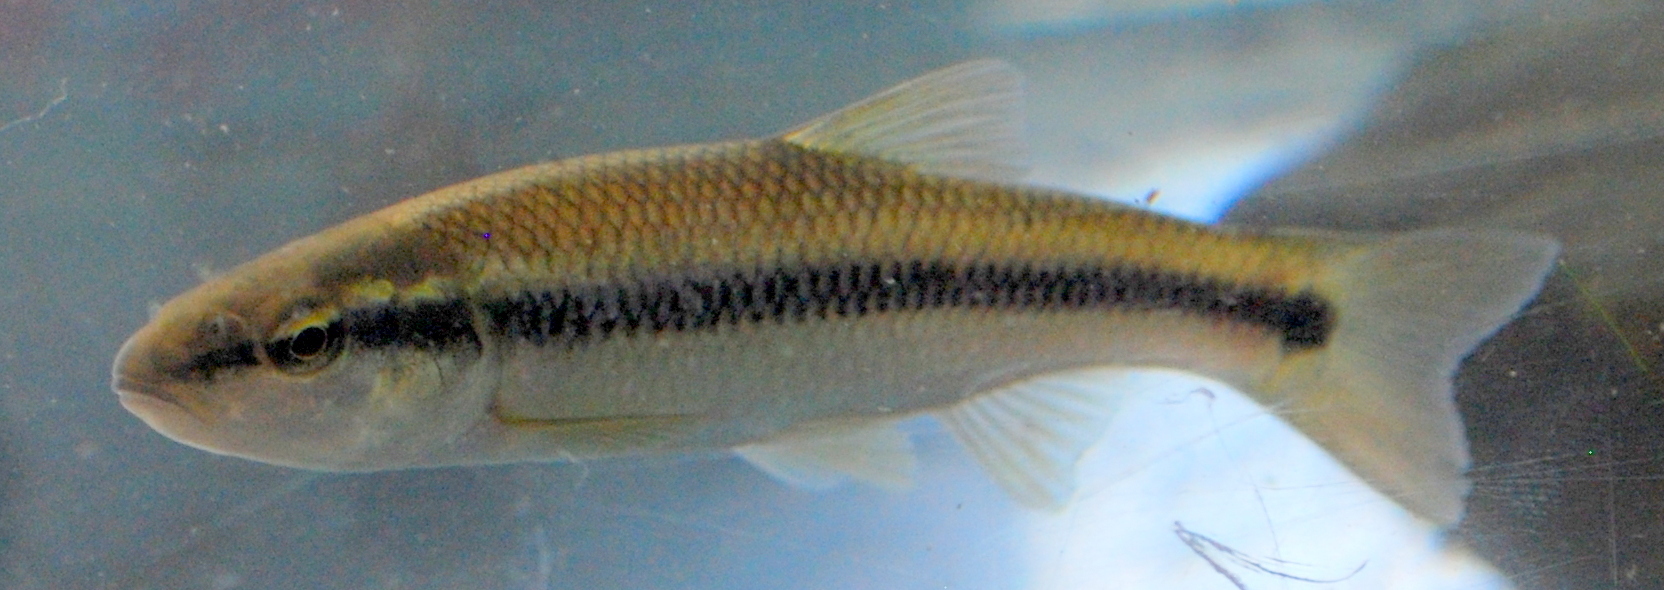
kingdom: Animalia
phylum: Chordata
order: Cypriniformes
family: Cyprinidae
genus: Nocomis
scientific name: Nocomis biguttatus
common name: Hornyhead chub
